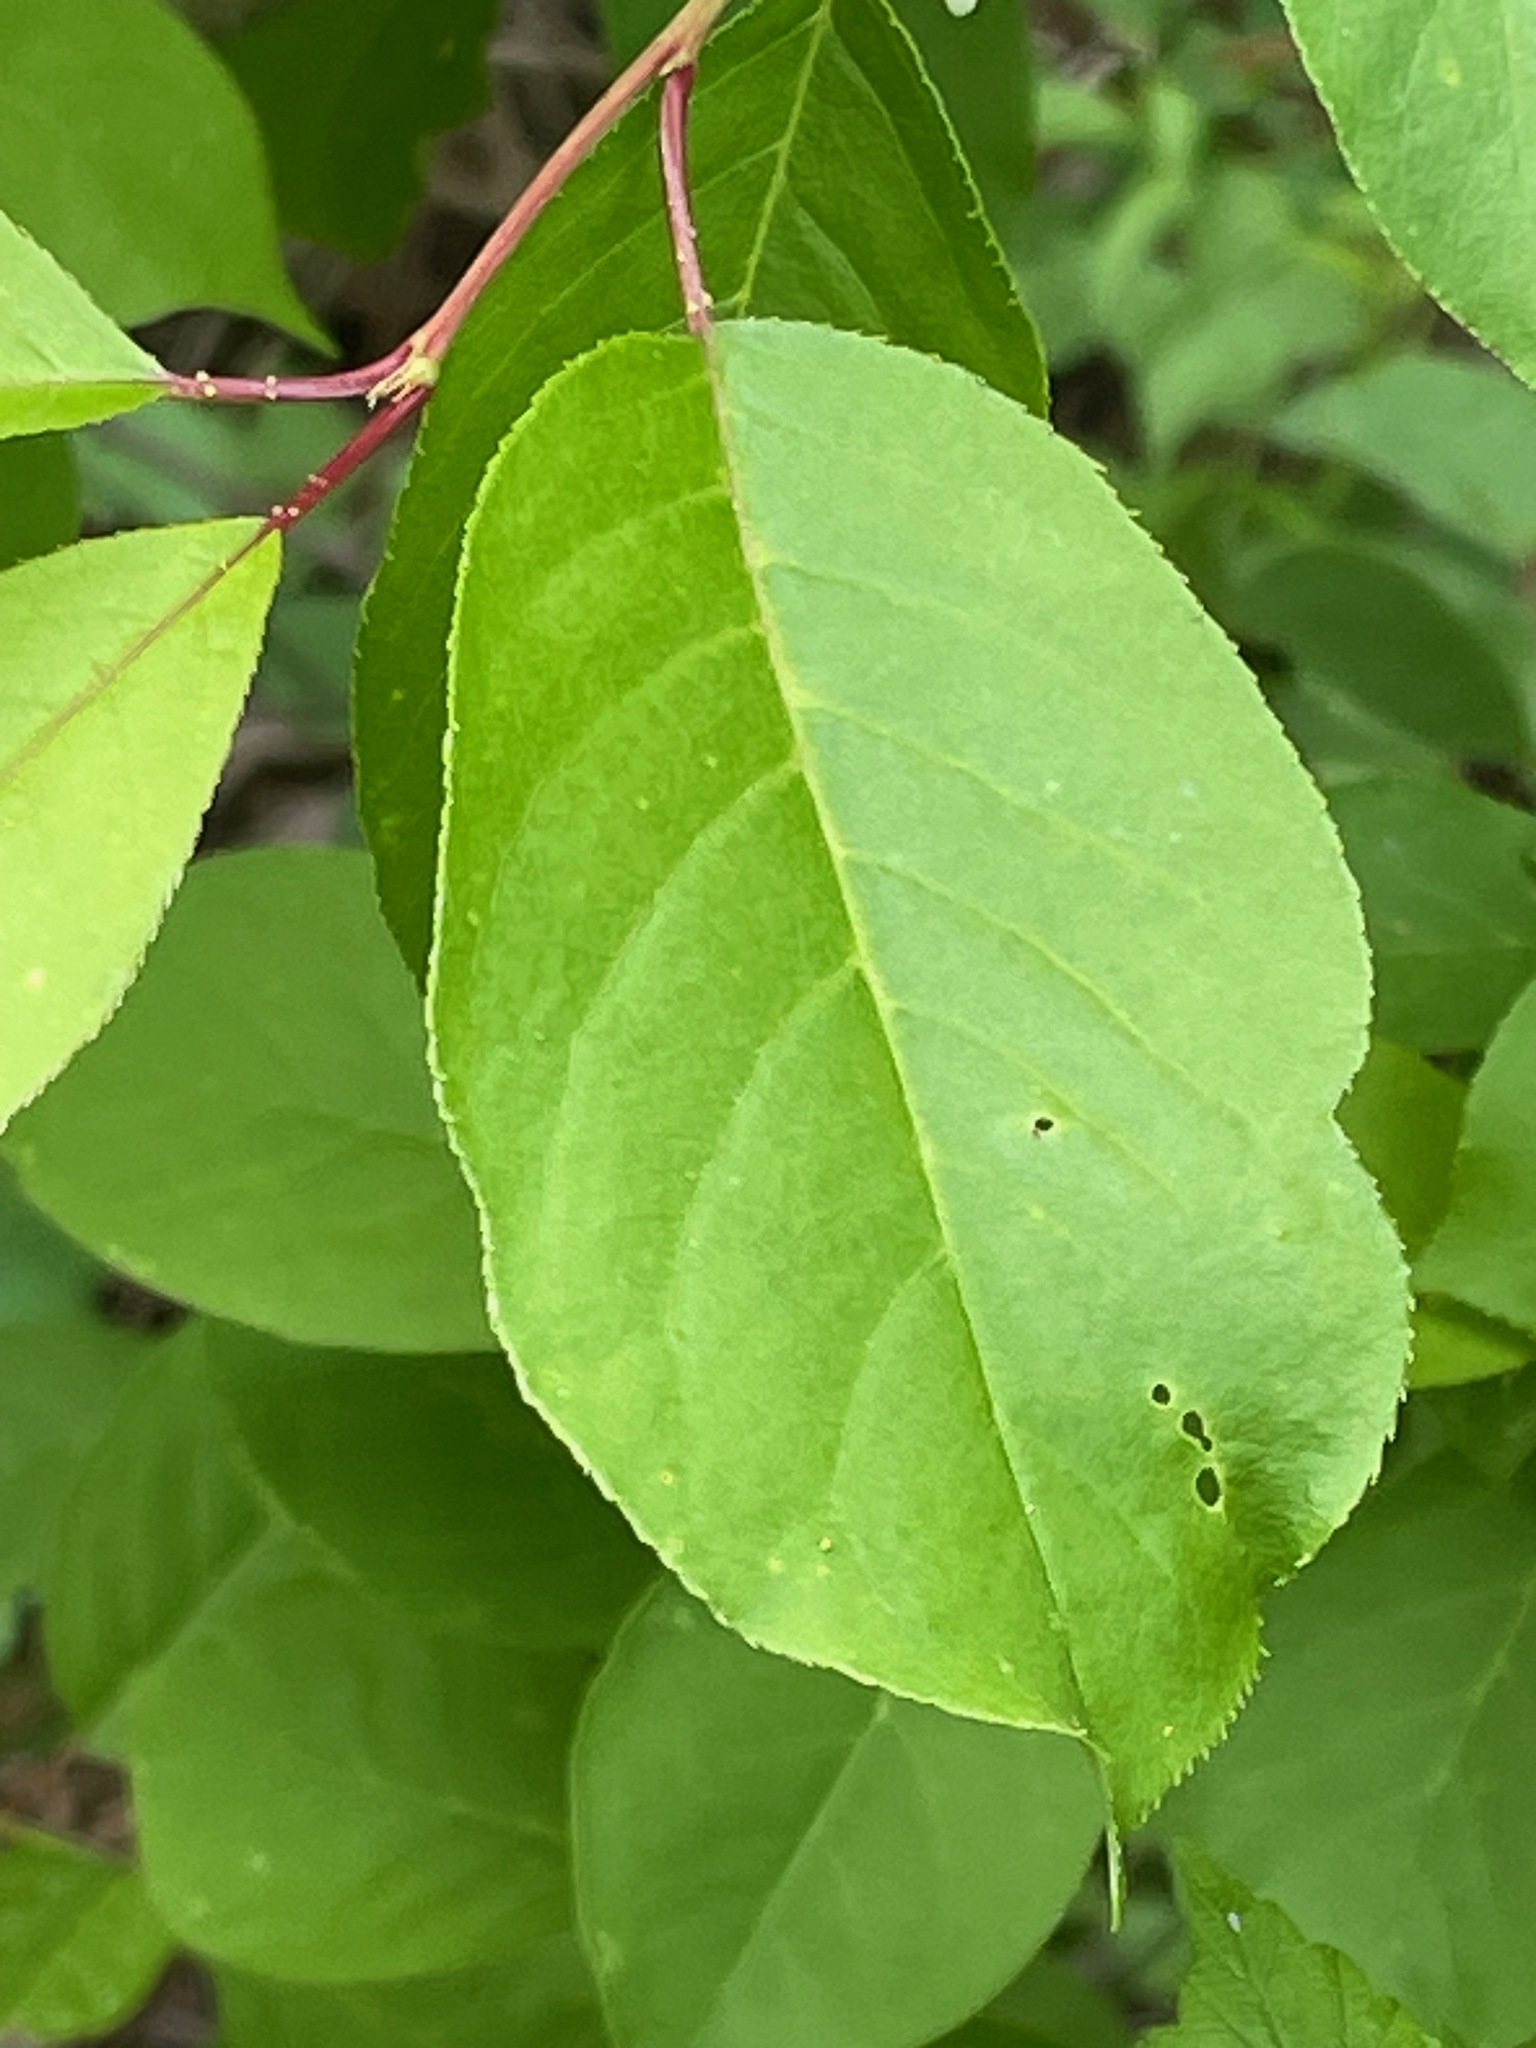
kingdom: Plantae
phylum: Tracheophyta
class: Magnoliopsida
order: Rosales
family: Rosaceae
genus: Prunus
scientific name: Prunus virginiana
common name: Chokecherry
